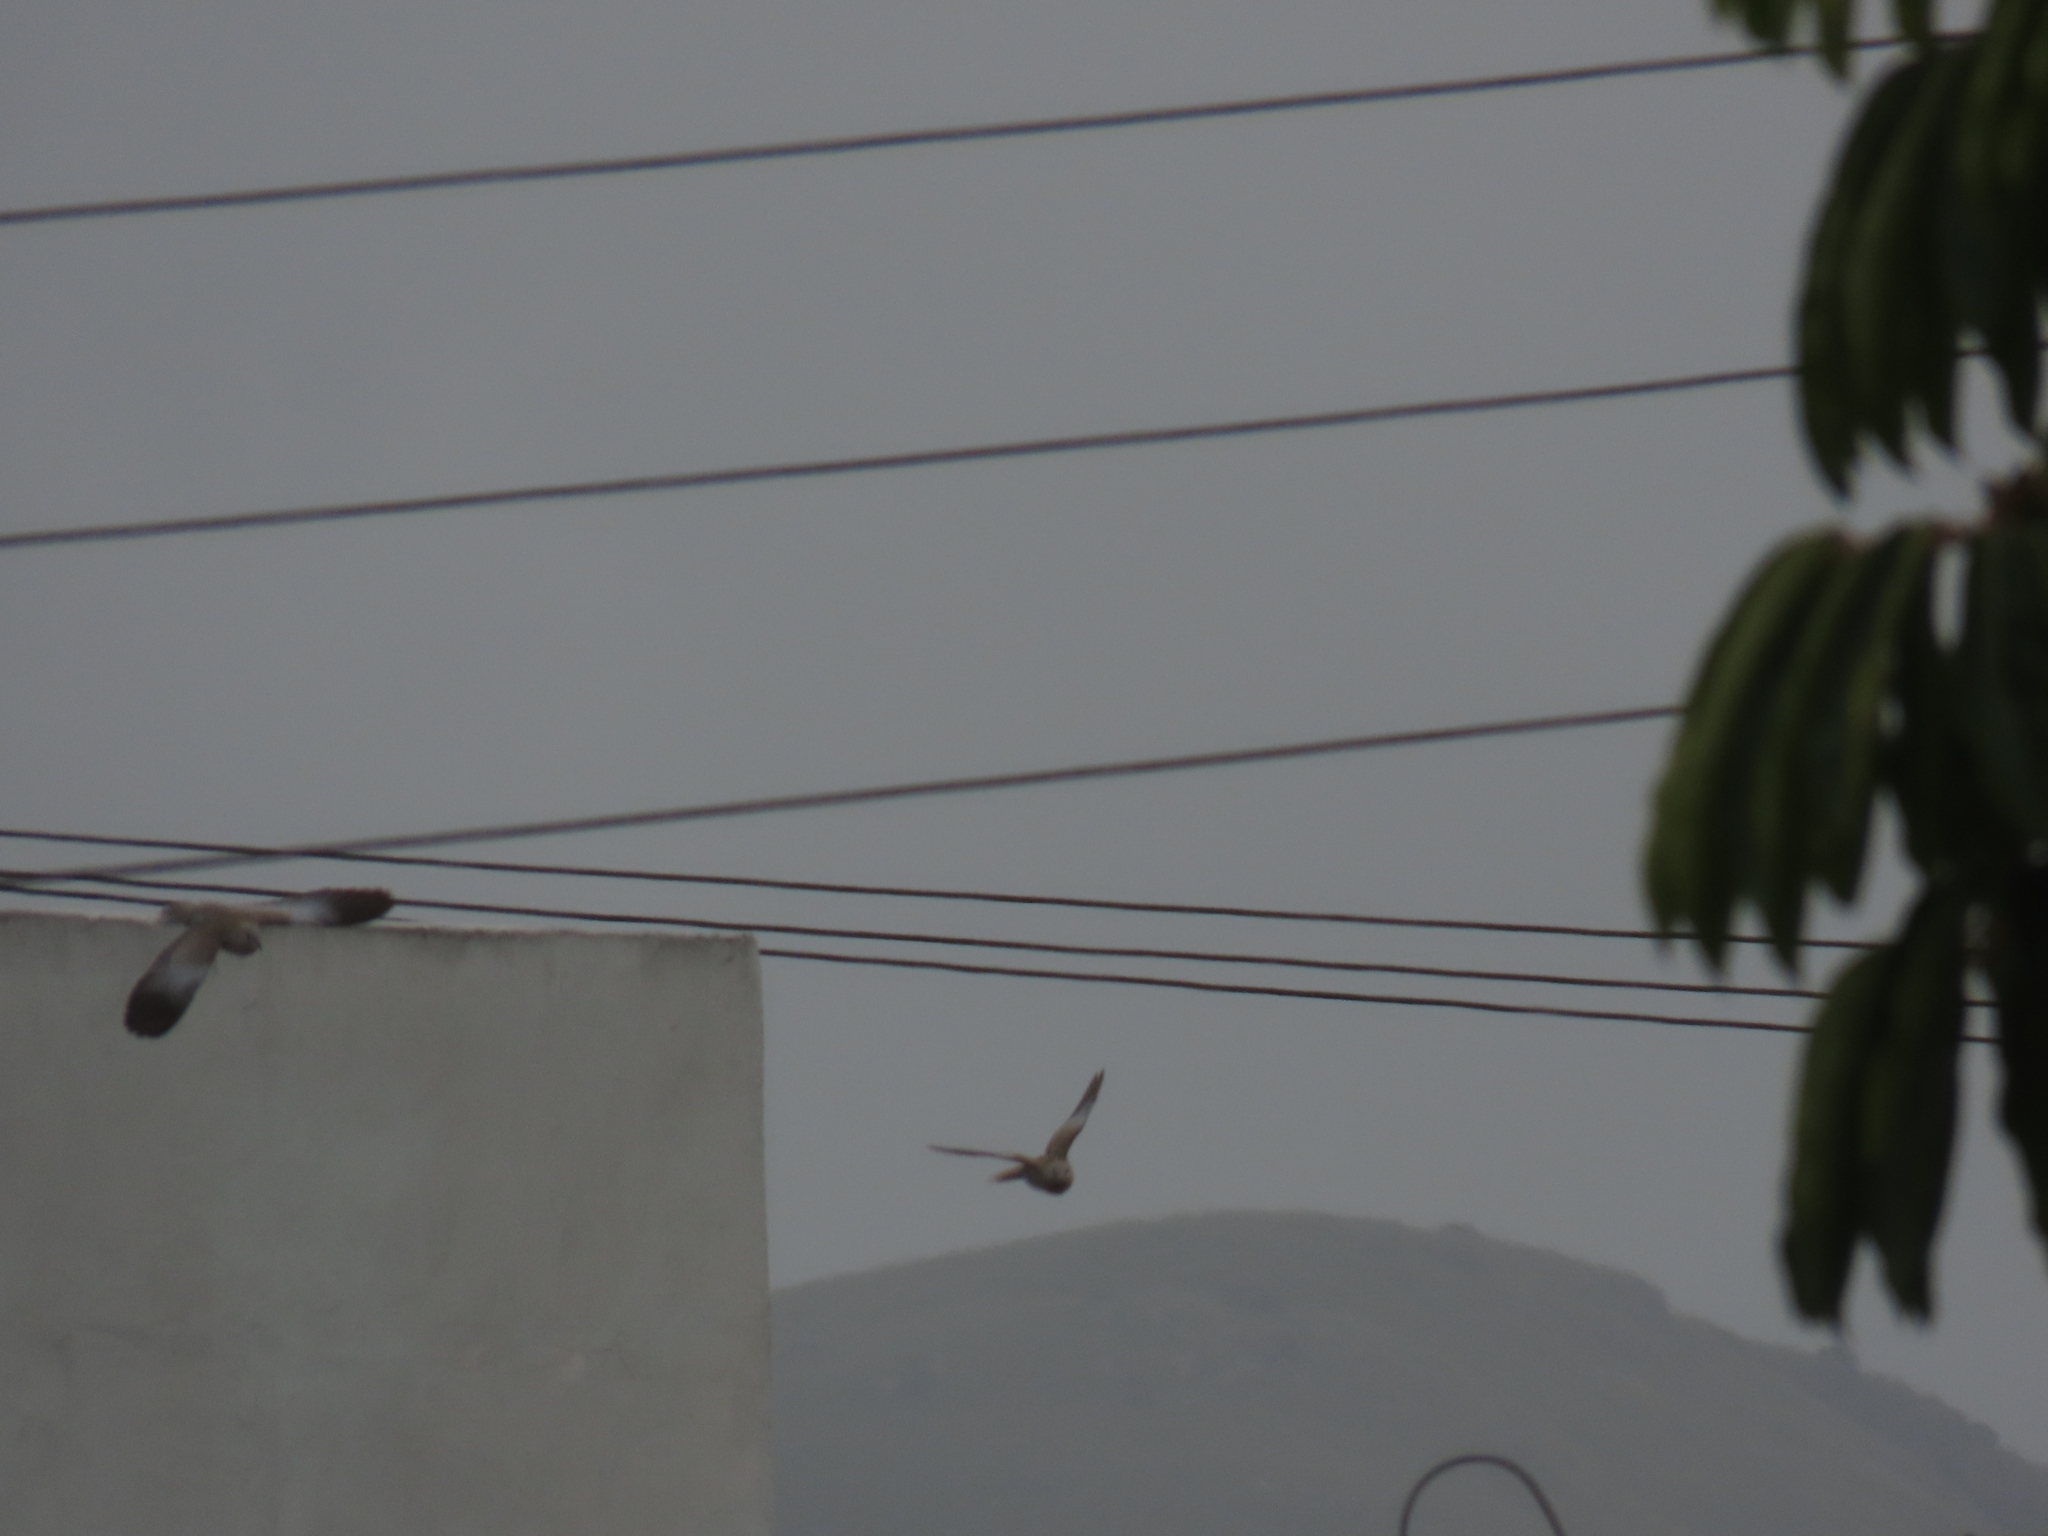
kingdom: Animalia
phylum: Chordata
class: Aves
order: Columbiformes
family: Columbidae
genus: Streptopelia
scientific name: Streptopelia decaocto
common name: Eurasian collared dove
